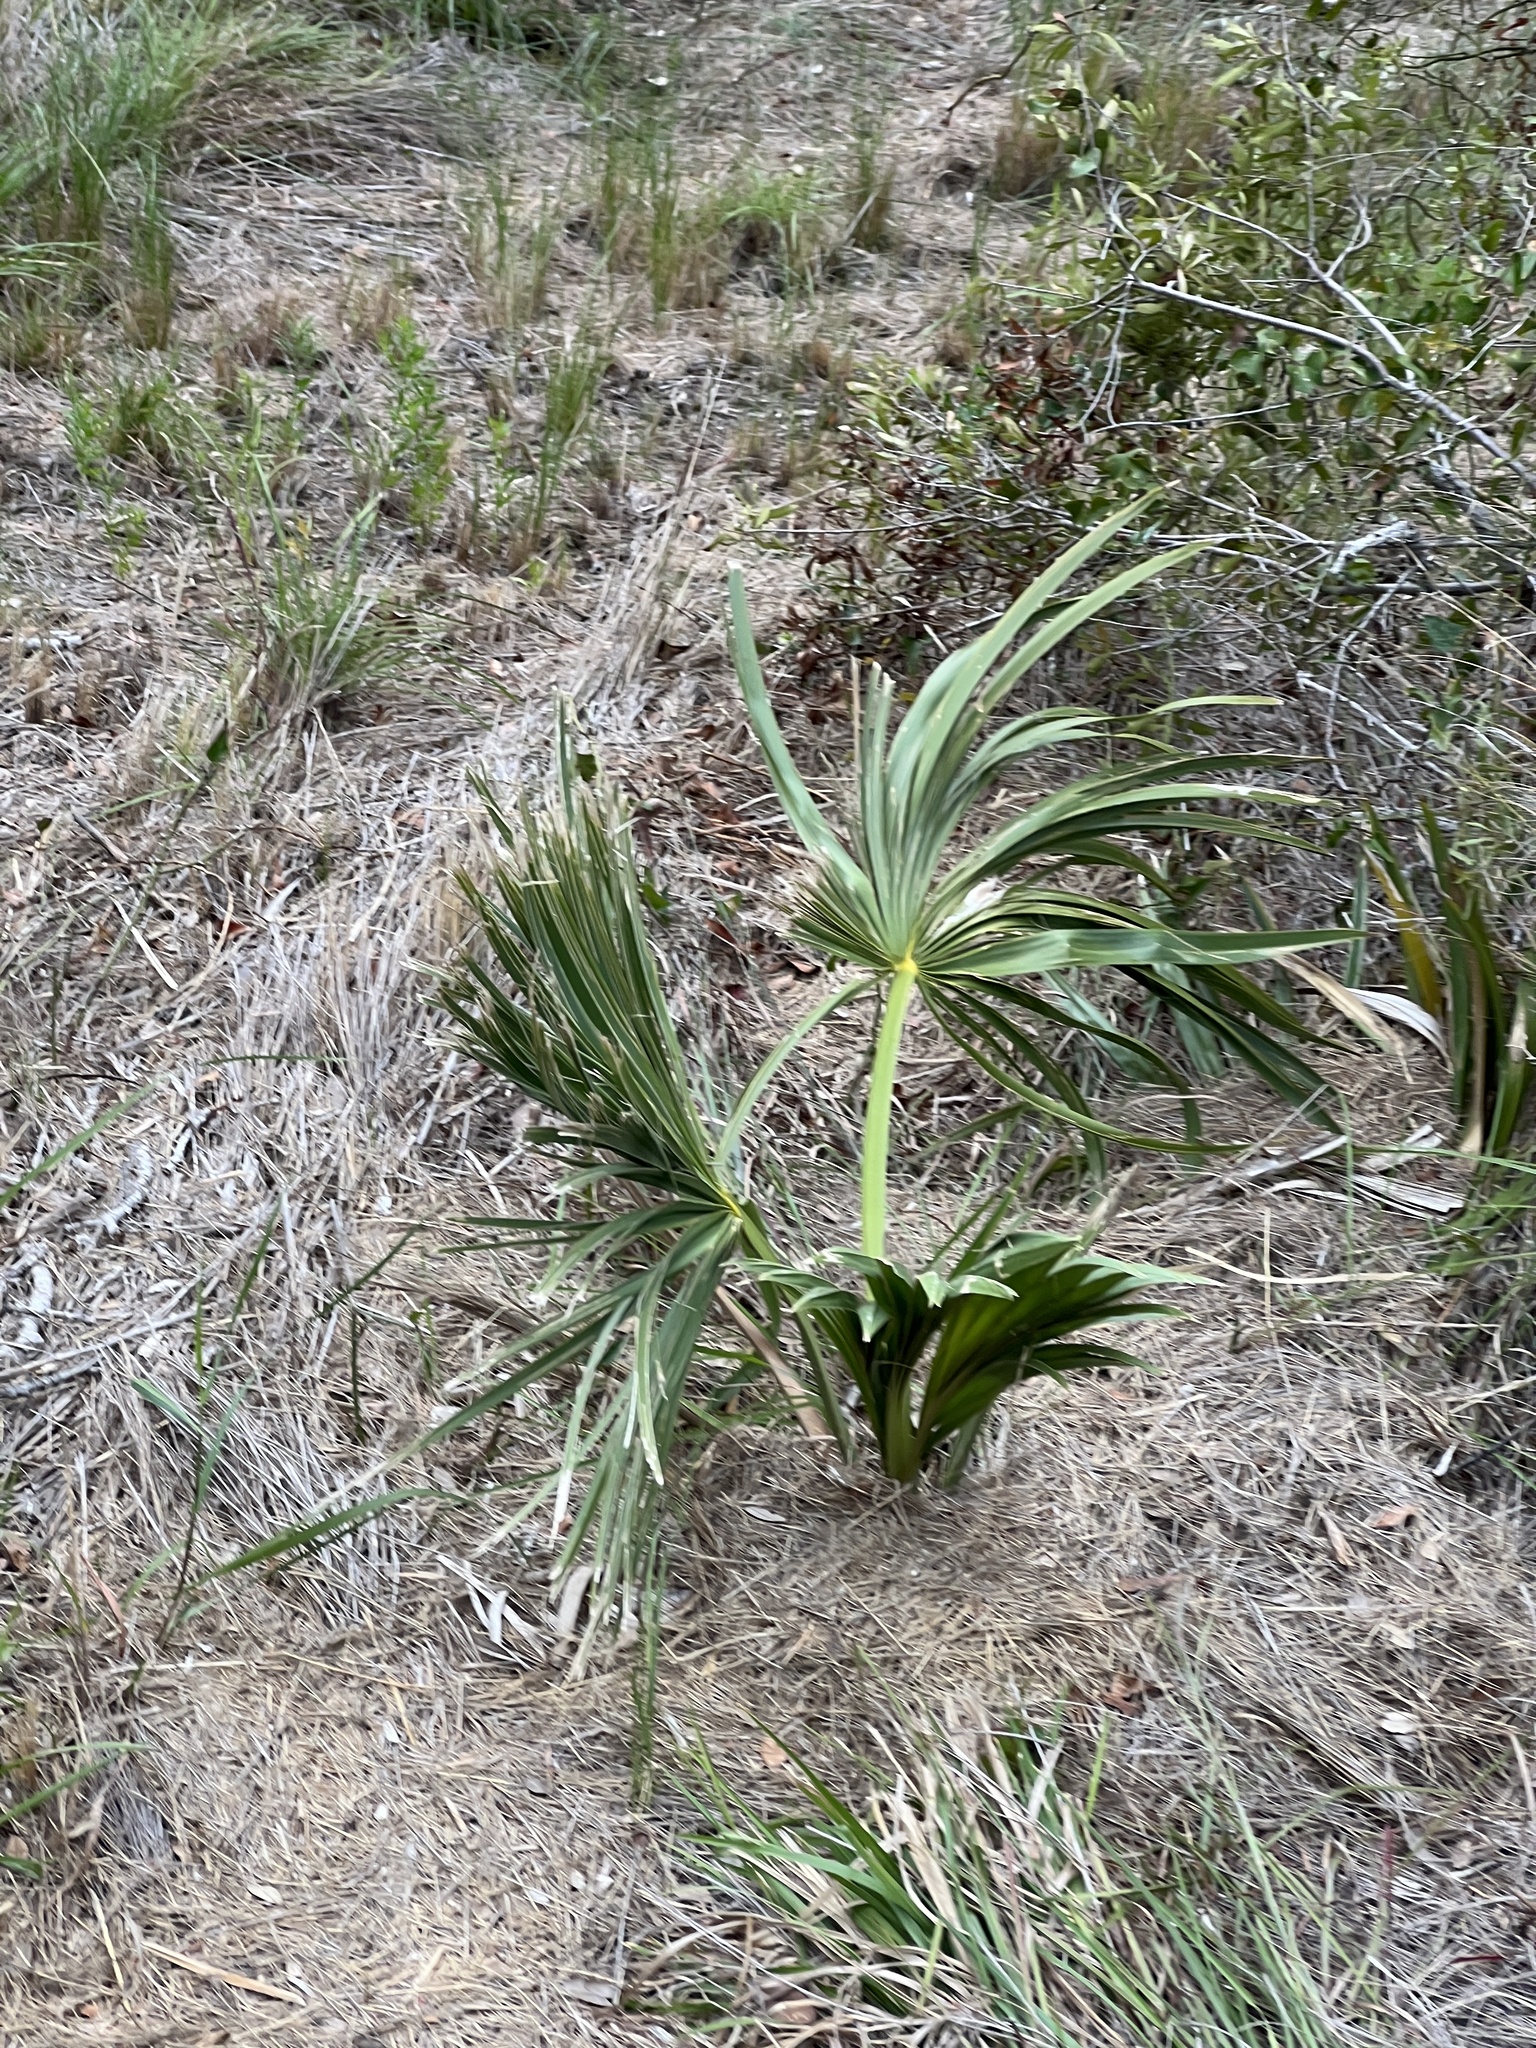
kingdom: Plantae
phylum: Tracheophyta
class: Liliopsida
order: Arecales
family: Arecaceae
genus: Sabal
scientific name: Sabal minor
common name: Dwarf palmetto
